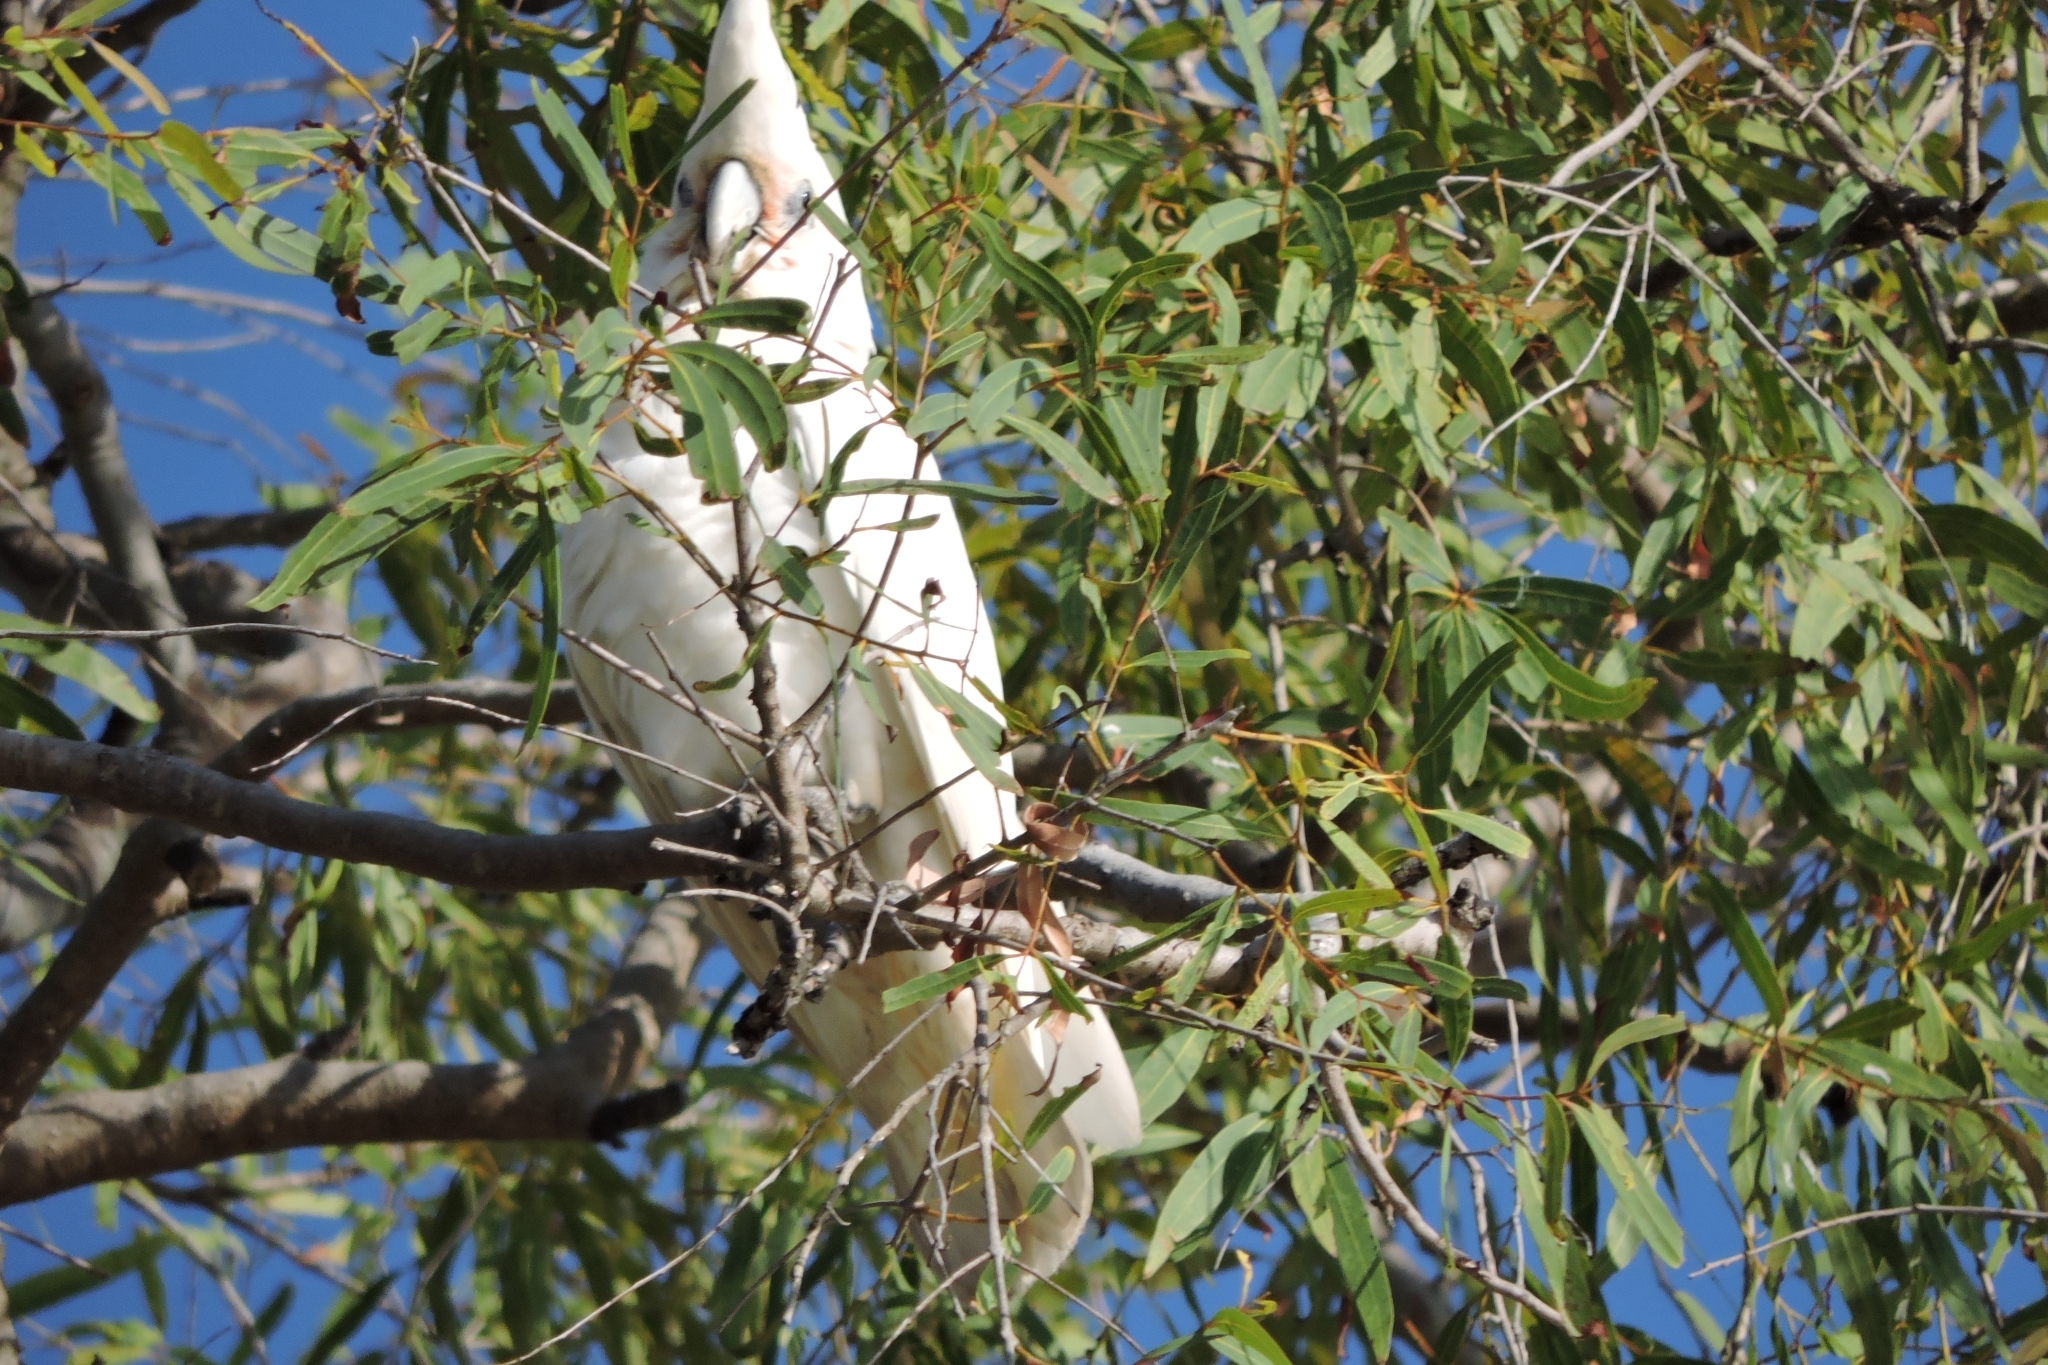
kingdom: Animalia
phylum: Chordata
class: Aves
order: Psittaciformes
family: Psittacidae
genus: Cacatua
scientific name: Cacatua sanguinea
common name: Little corella
